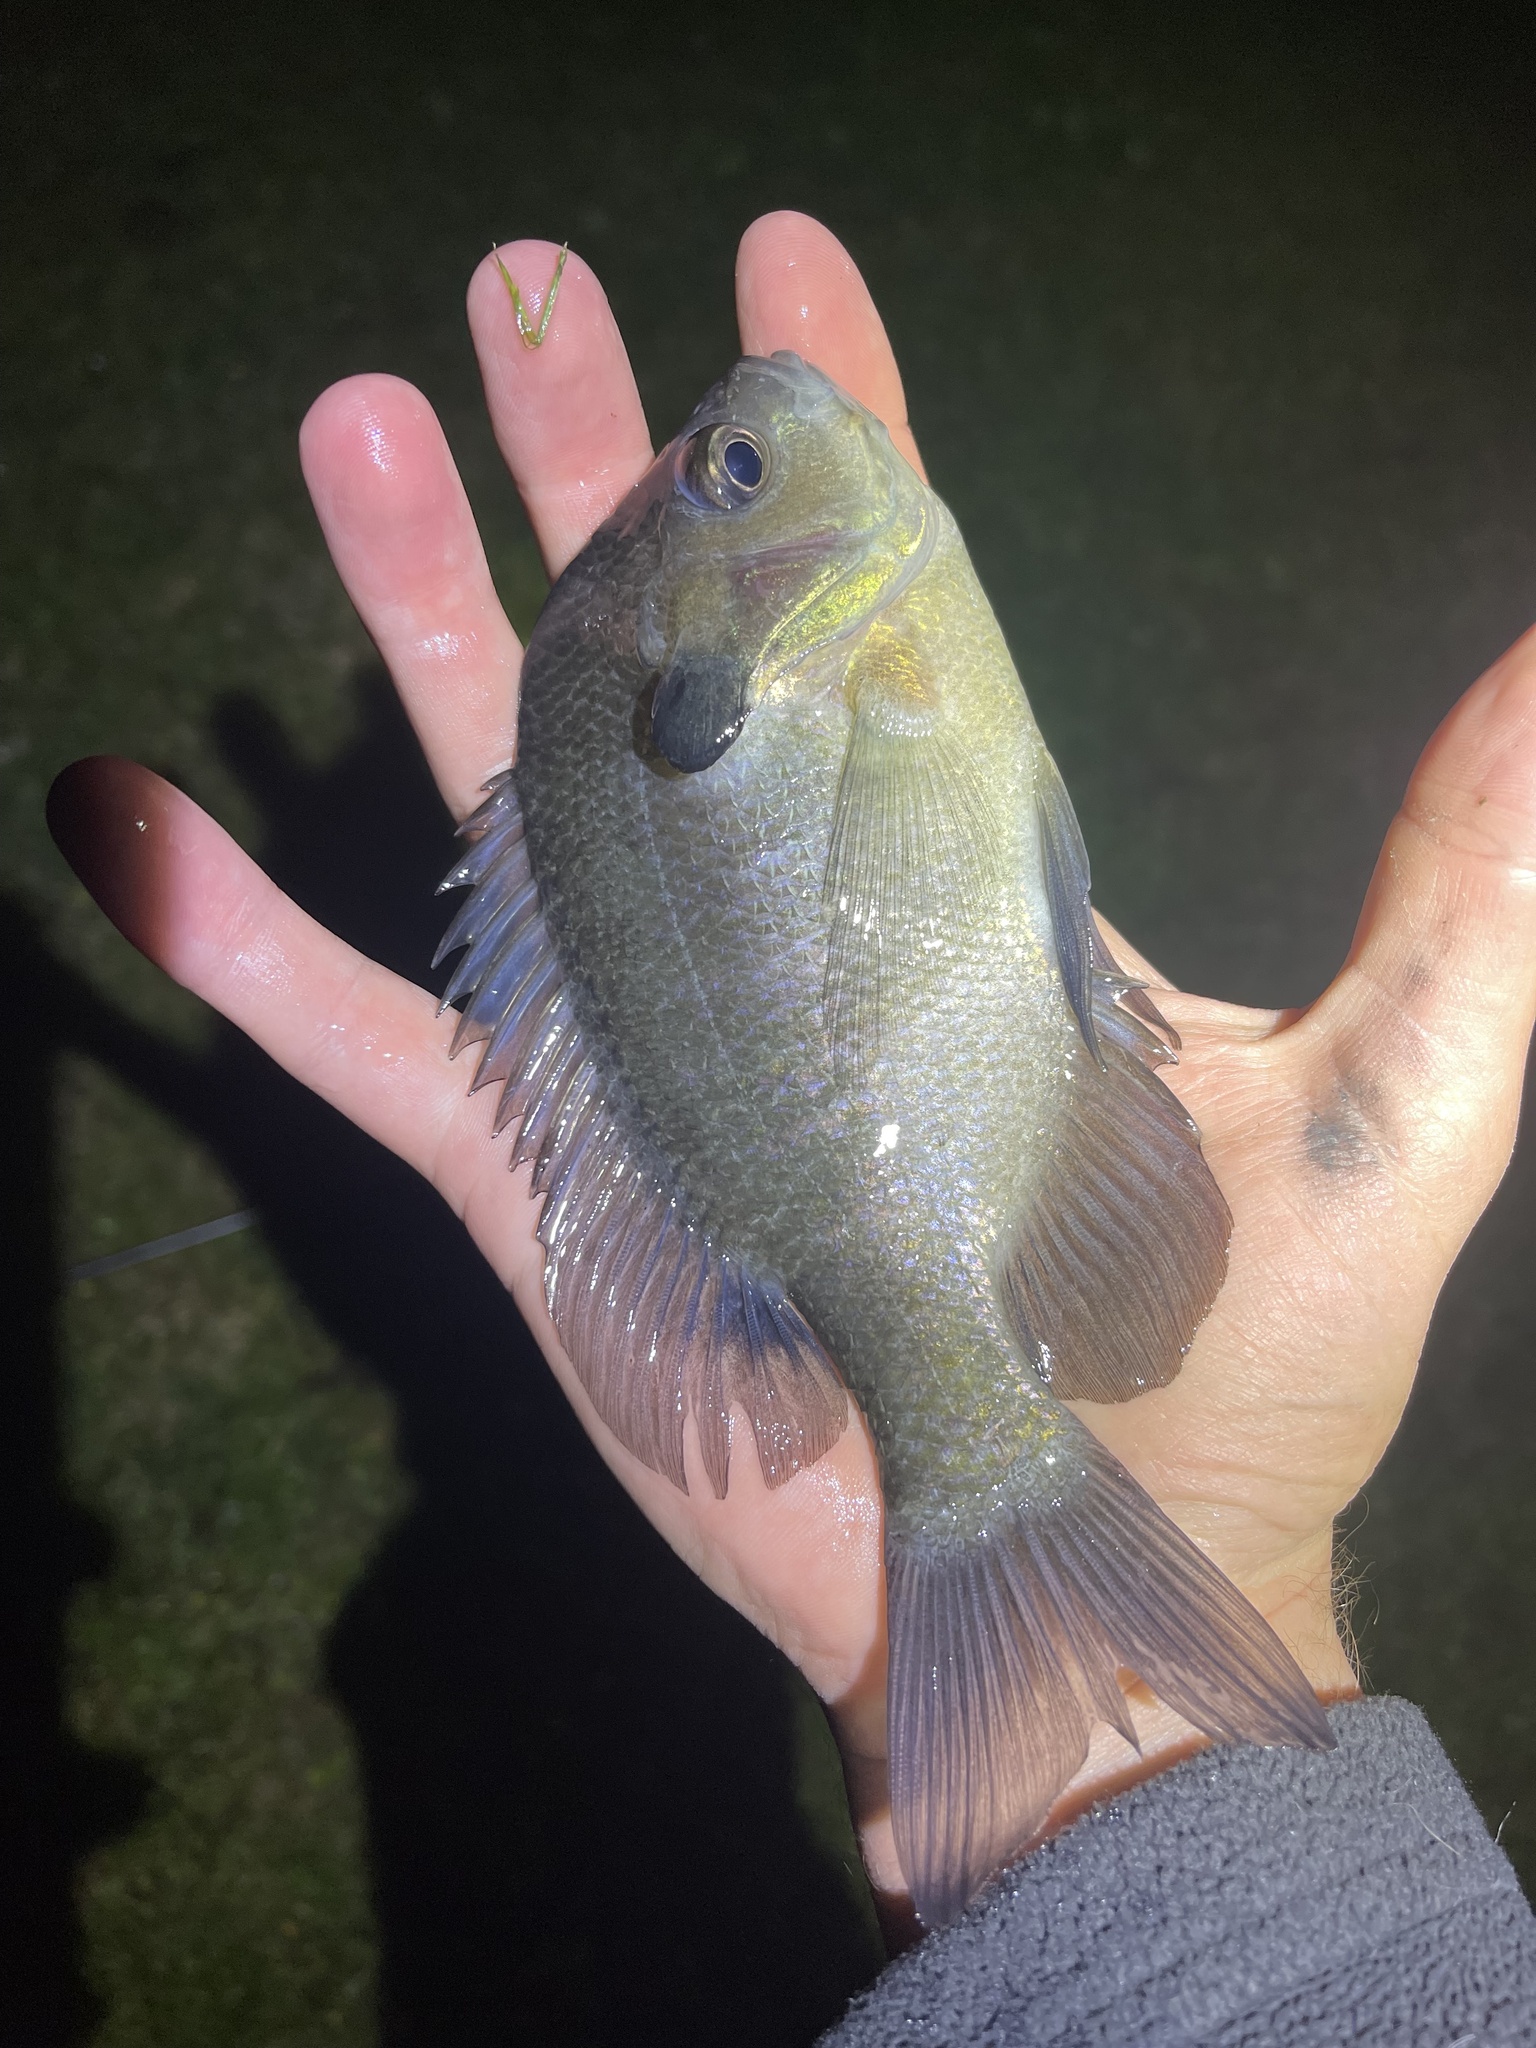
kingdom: Animalia
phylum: Chordata
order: Perciformes
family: Centrarchidae
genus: Lepomis
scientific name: Lepomis macrochirus
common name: Bluegill
